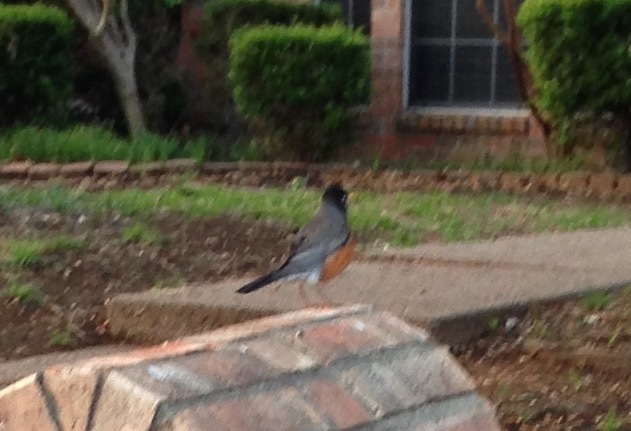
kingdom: Animalia
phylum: Chordata
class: Aves
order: Passeriformes
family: Turdidae
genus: Turdus
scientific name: Turdus migratorius
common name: American robin
